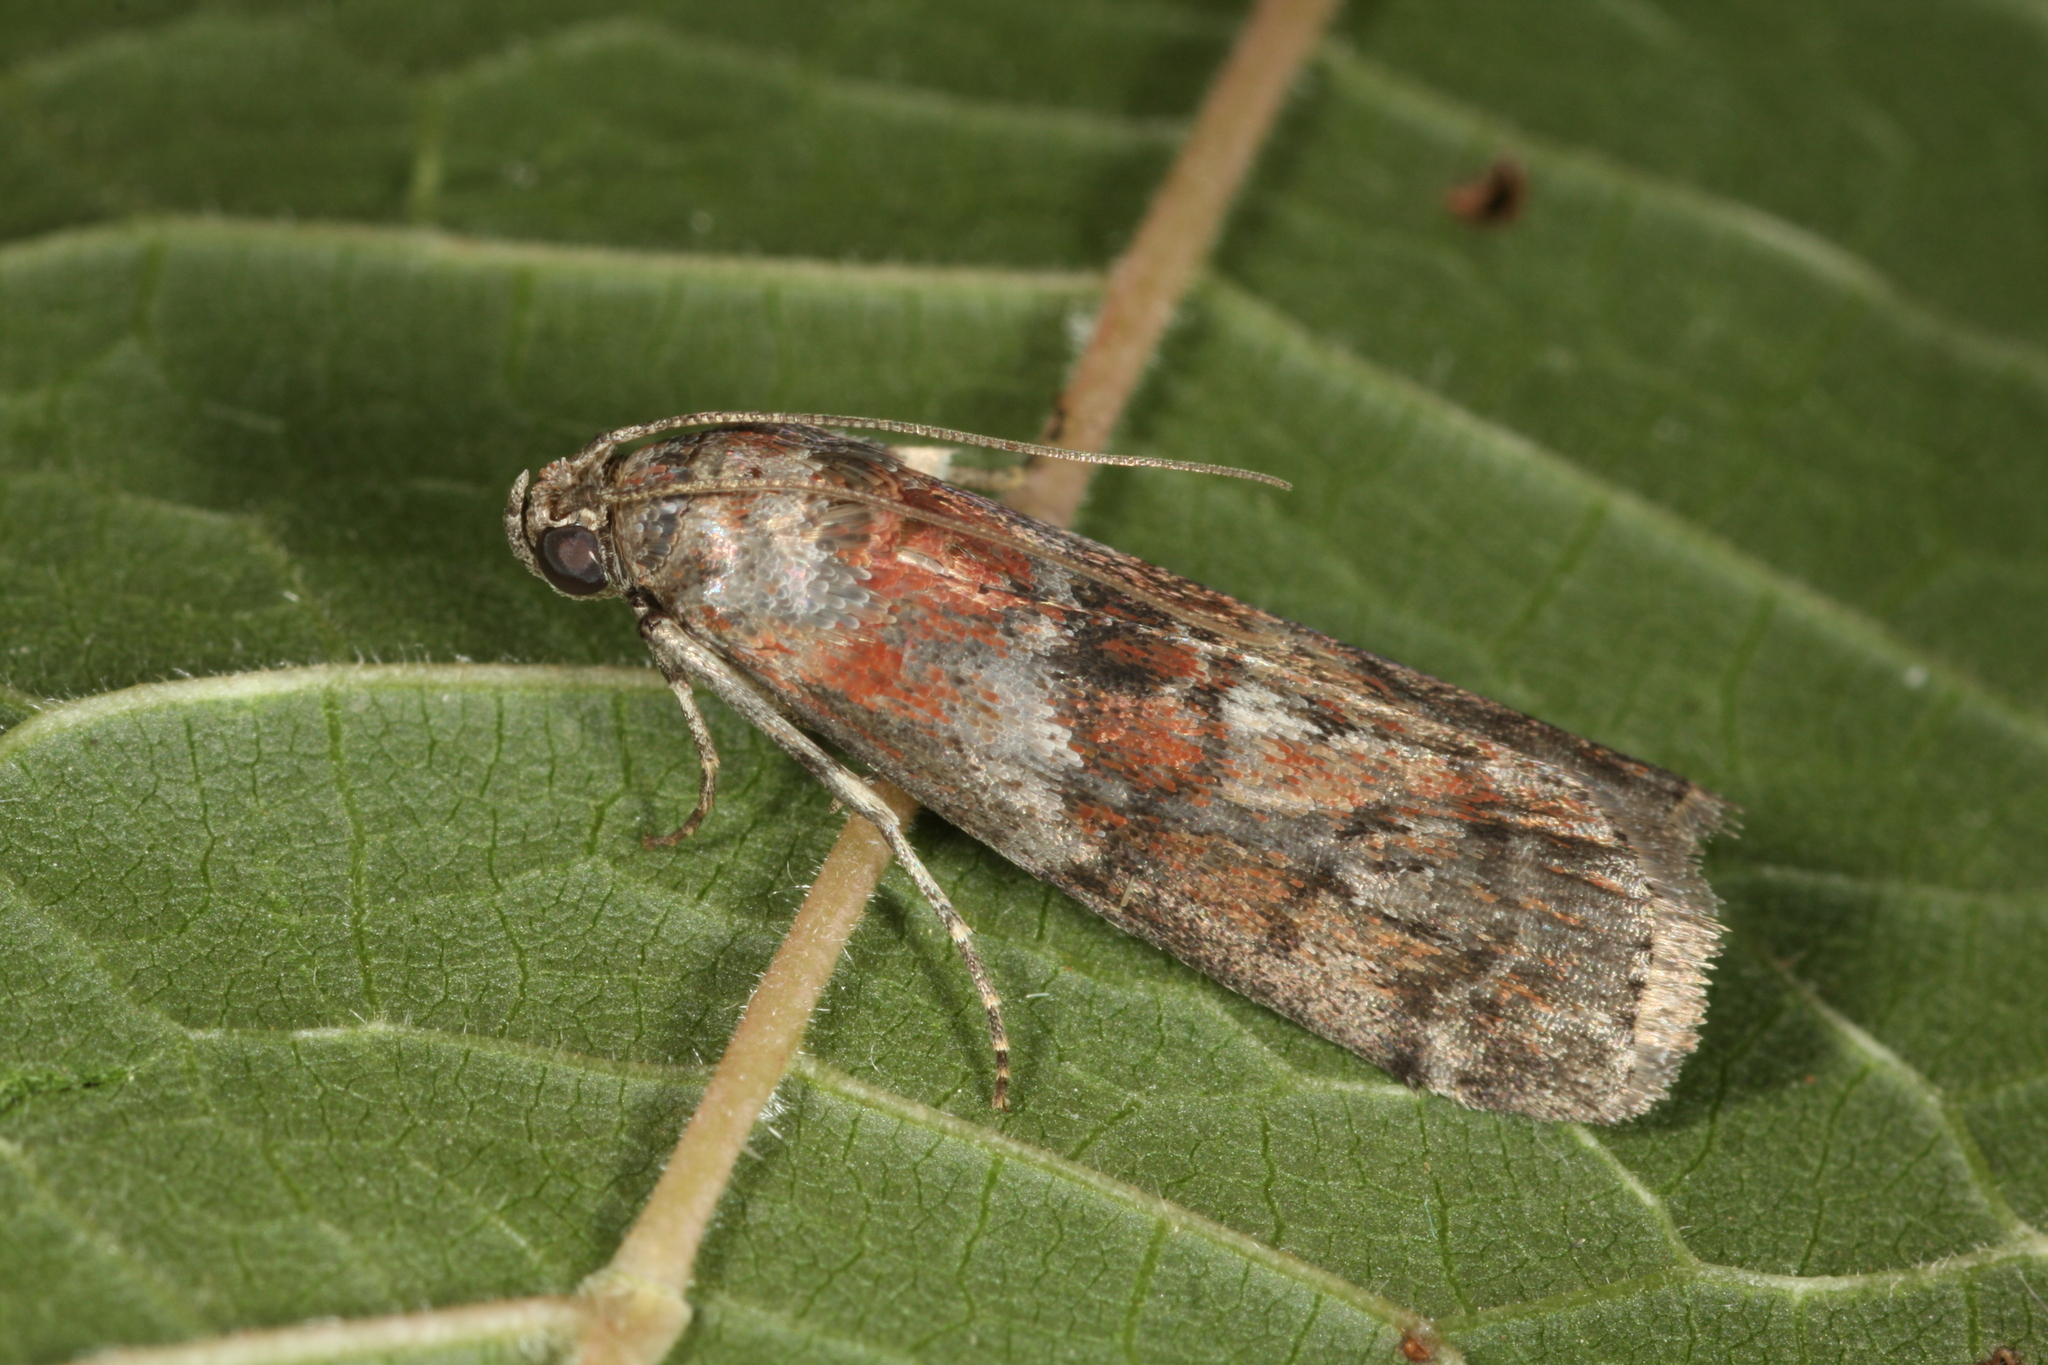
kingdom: Animalia
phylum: Arthropoda
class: Insecta
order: Lepidoptera
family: Pyralidae
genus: Phycita
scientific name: Phycita roborella
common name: Dotted oak knot-horn
